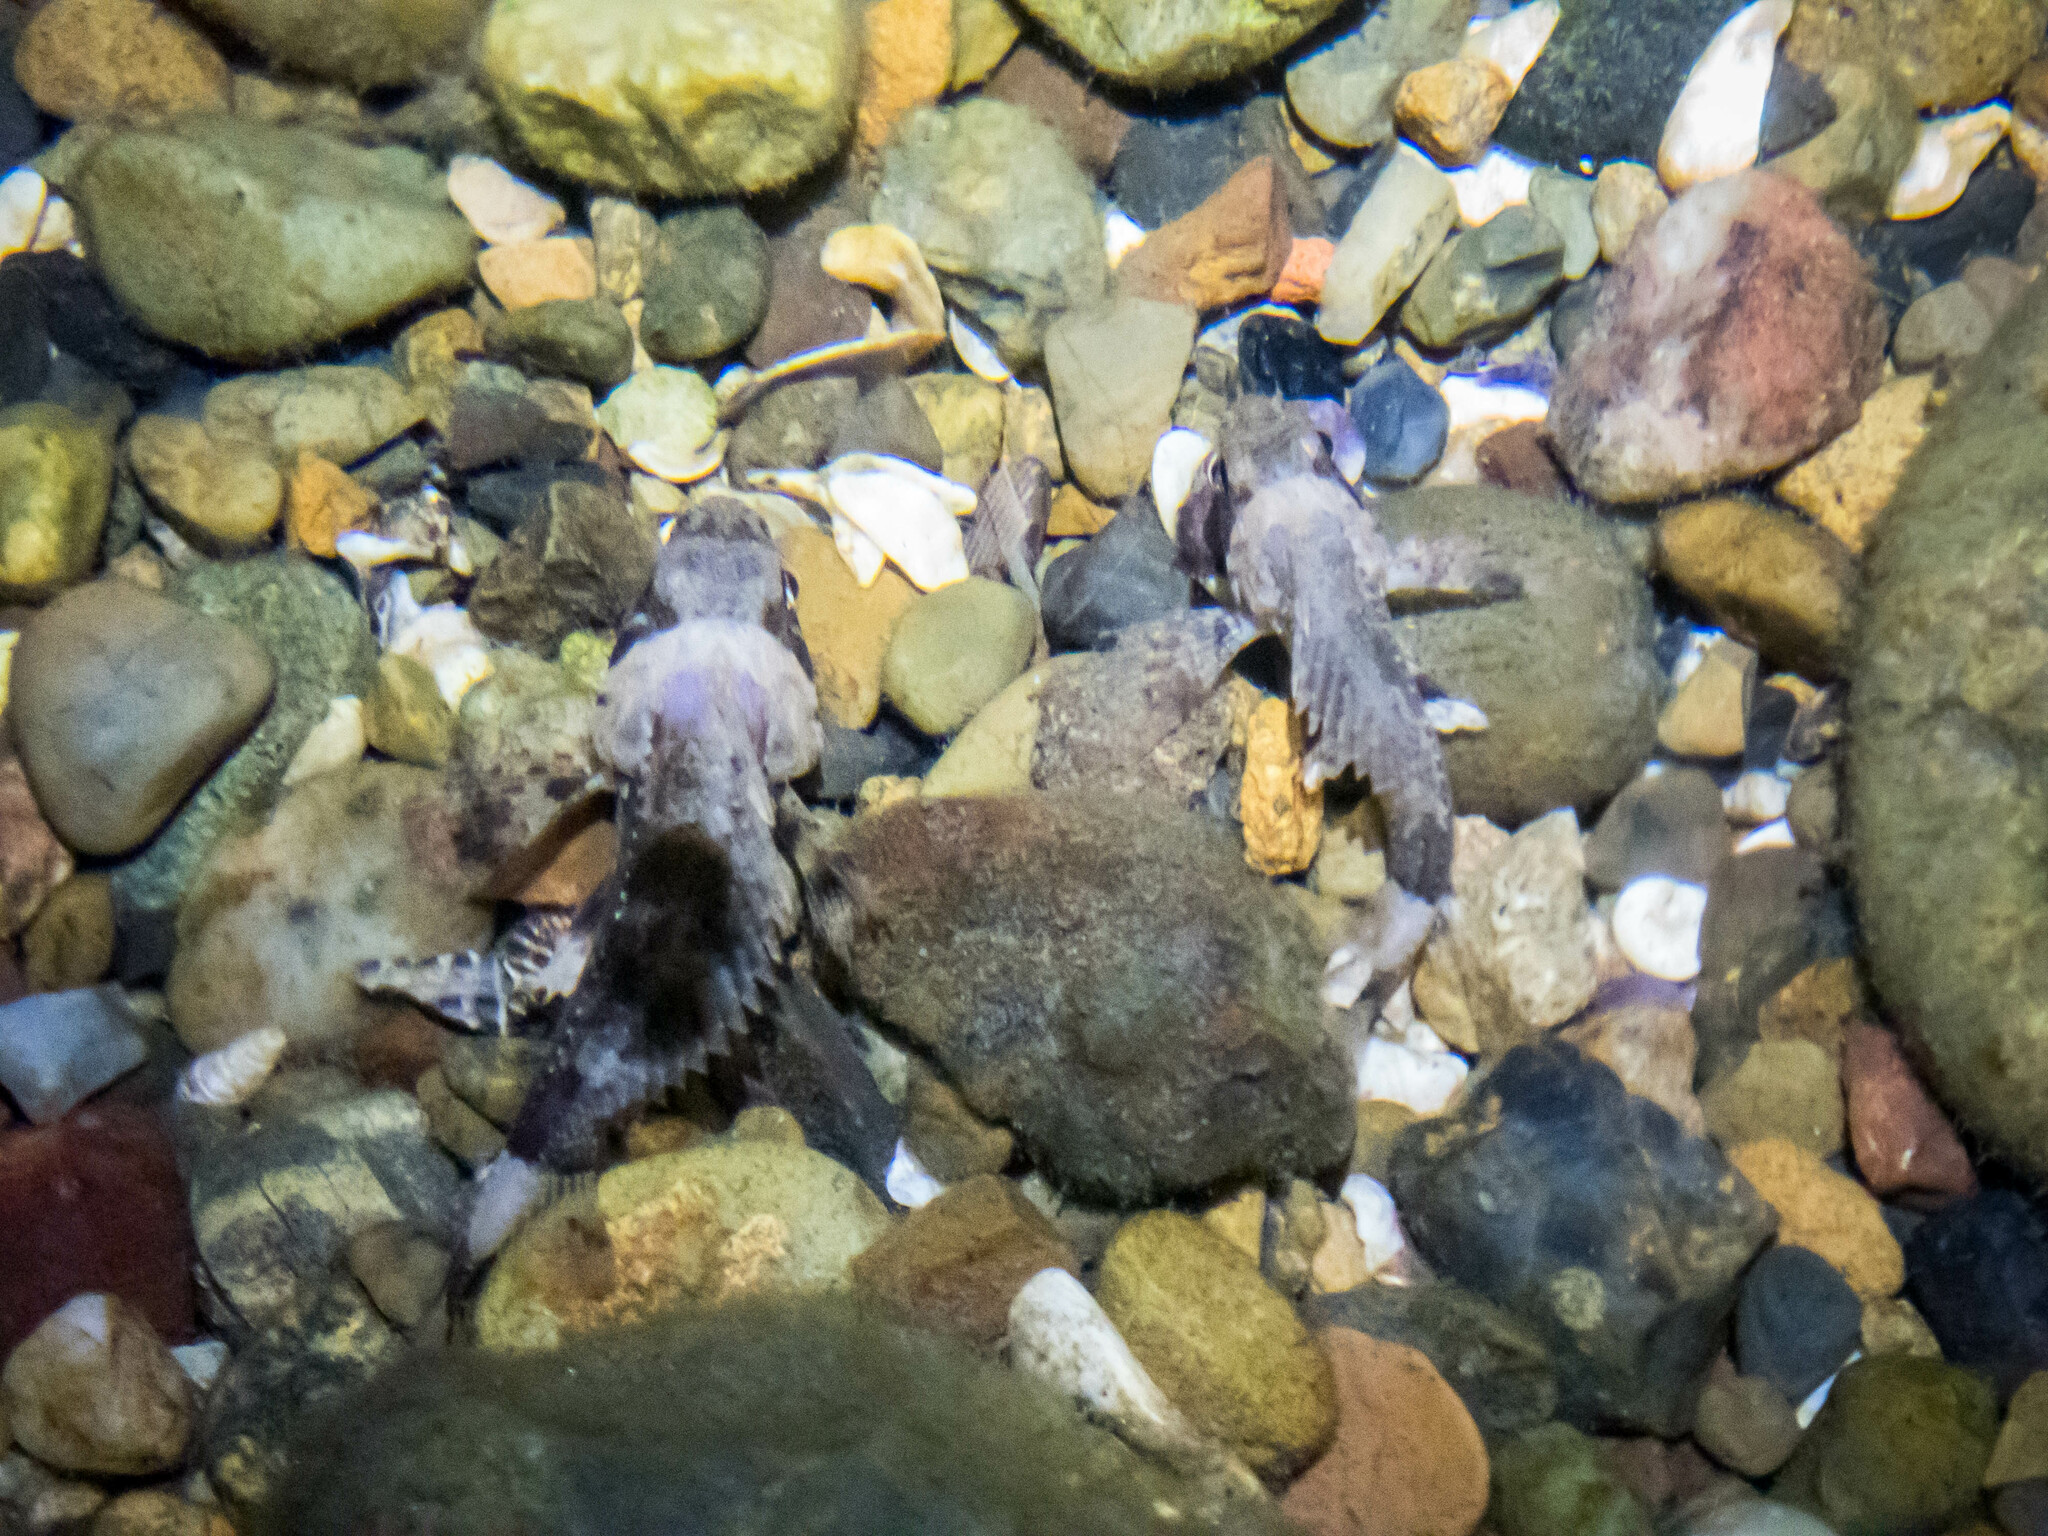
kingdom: Animalia
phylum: Chordata
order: Scorpaeniformes
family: Tetrarogidae
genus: Centropogon
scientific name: Centropogon australis
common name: Fortescue
